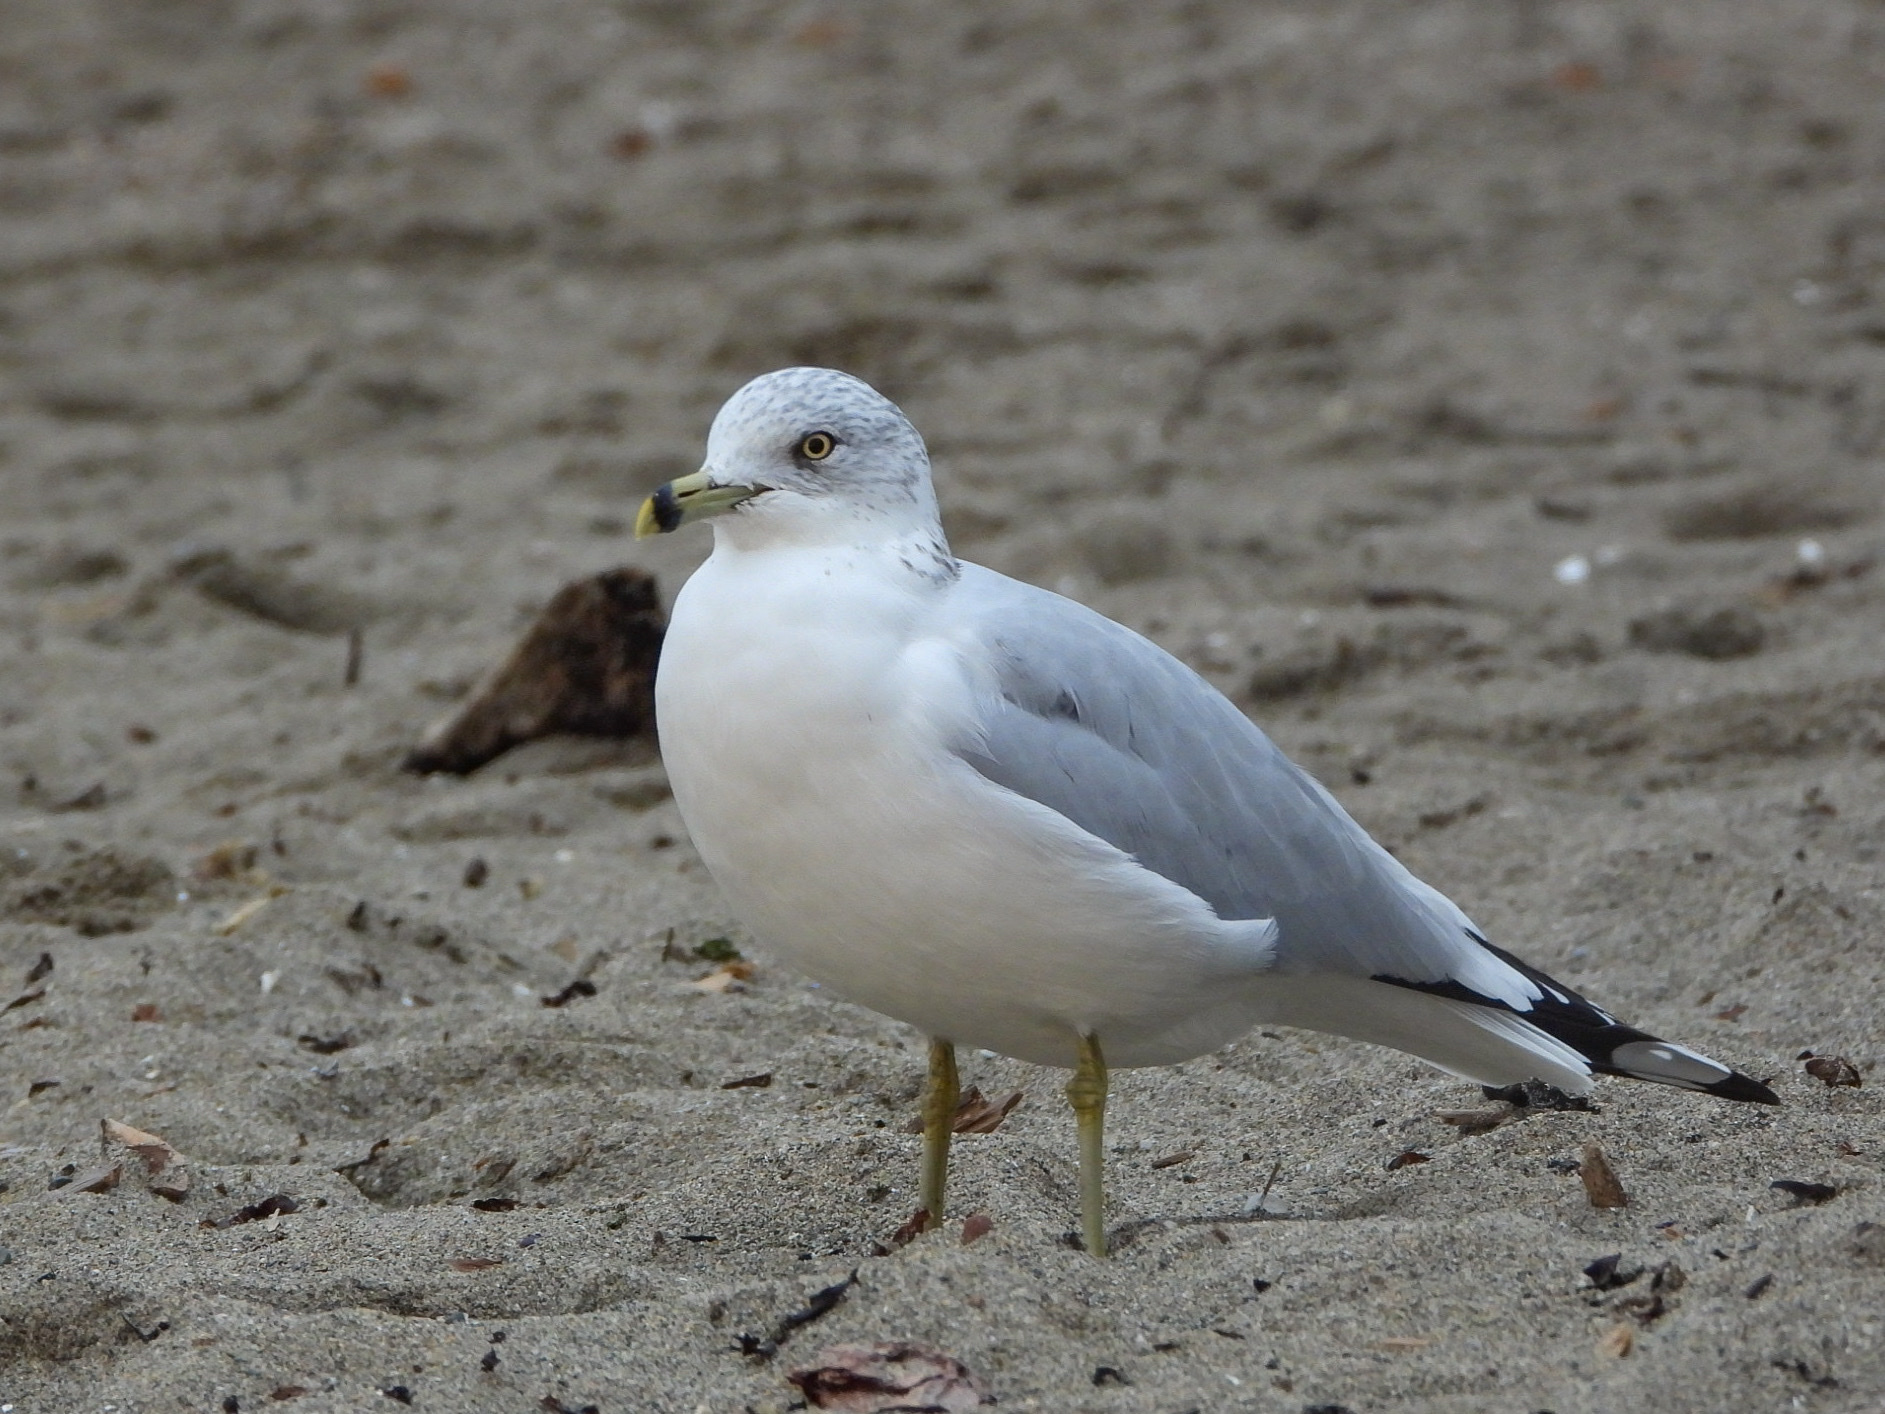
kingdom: Animalia
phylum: Chordata
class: Aves
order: Charadriiformes
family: Laridae
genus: Larus
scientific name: Larus delawarensis
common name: Ring-billed gull
